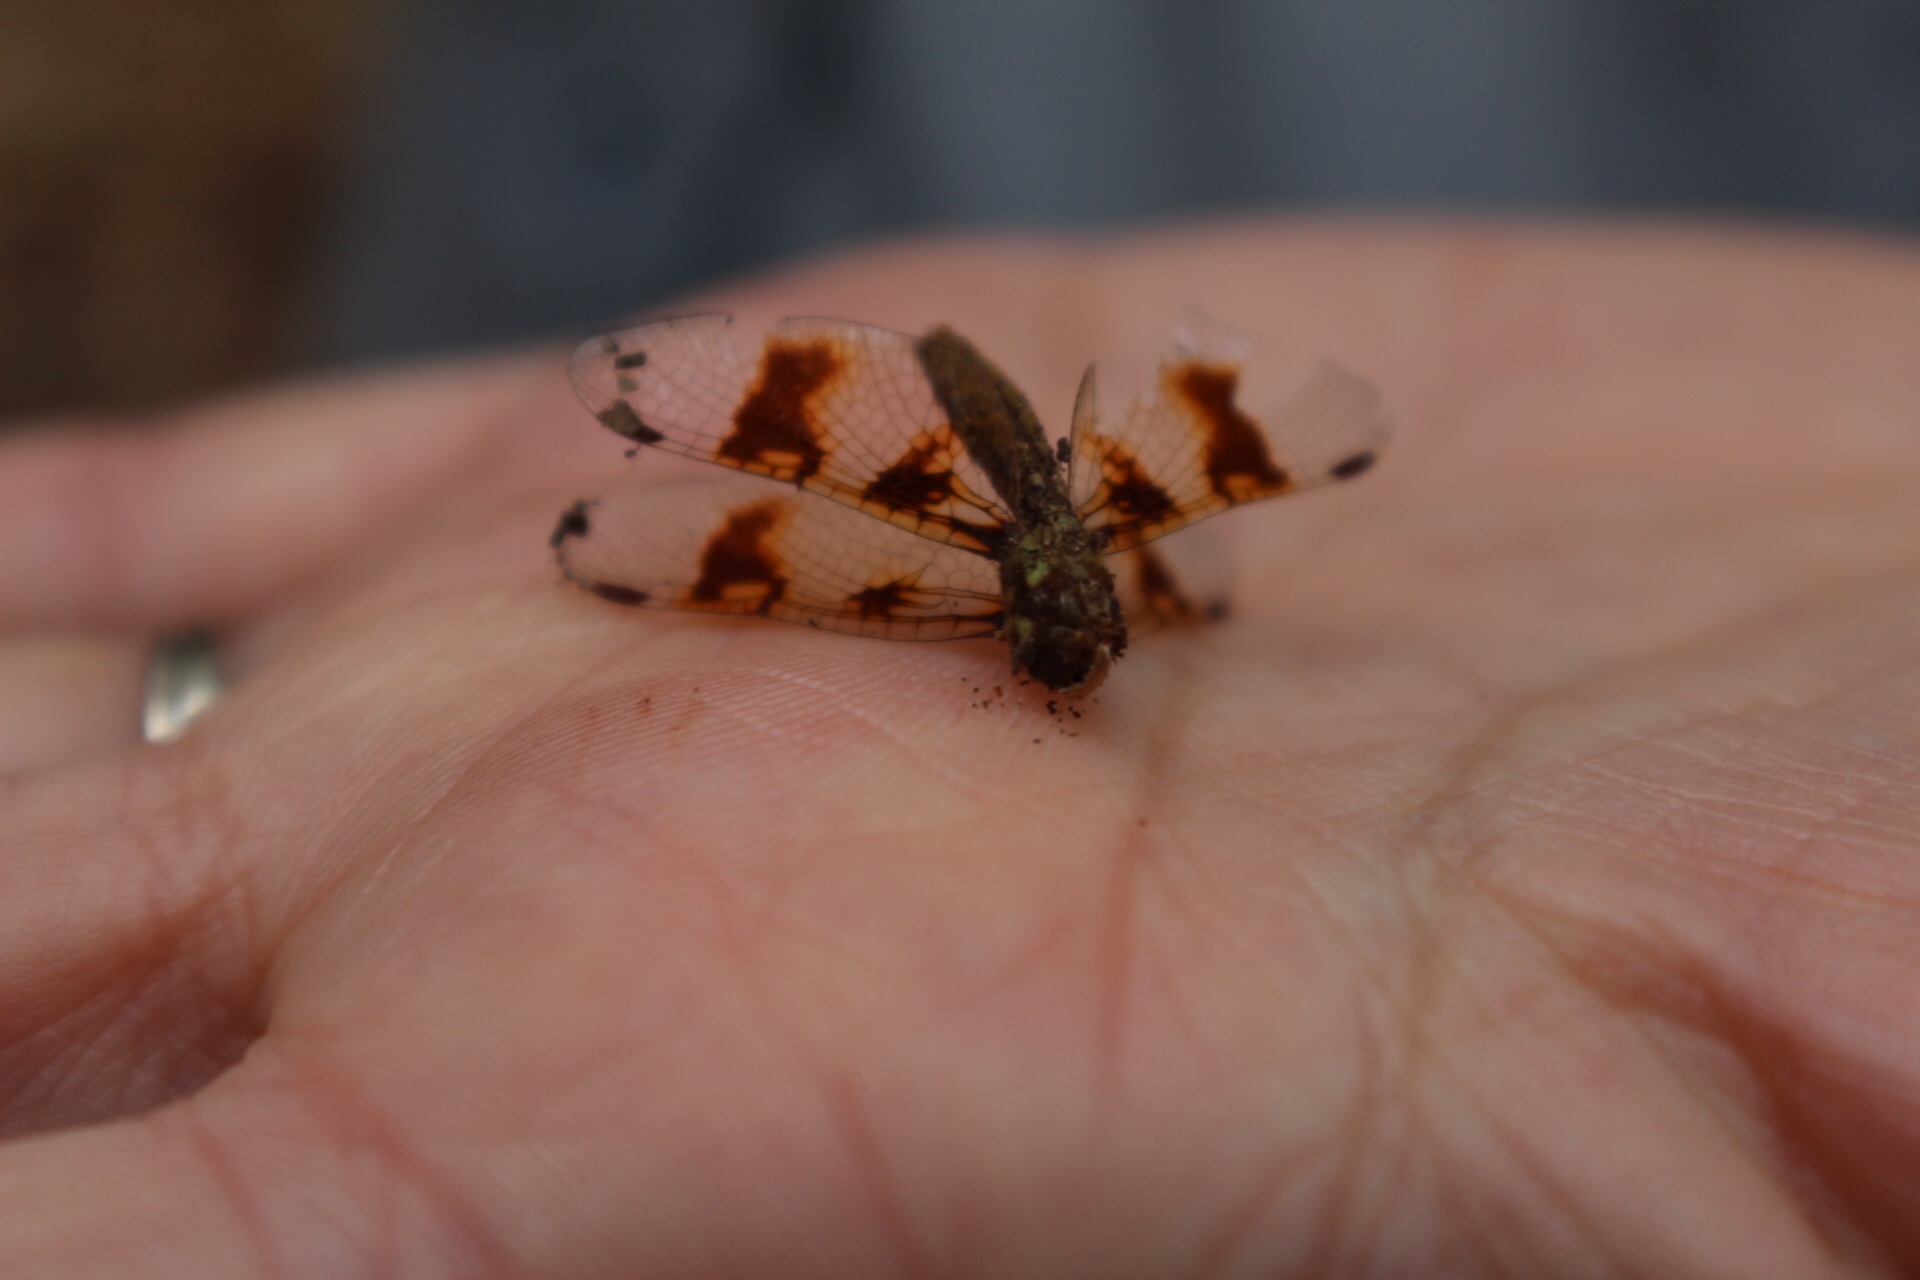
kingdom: Animalia
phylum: Arthropoda
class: Insecta
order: Odonata
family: Libellulidae
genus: Perithemis
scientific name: Perithemis tenera
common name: Eastern amberwing
